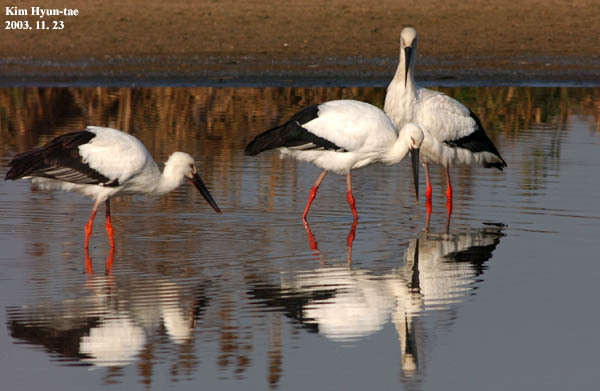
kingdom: Animalia
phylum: Chordata
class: Aves
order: Ciconiiformes
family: Ciconiidae
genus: Ciconia
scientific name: Ciconia boyciana
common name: Oriental stork
